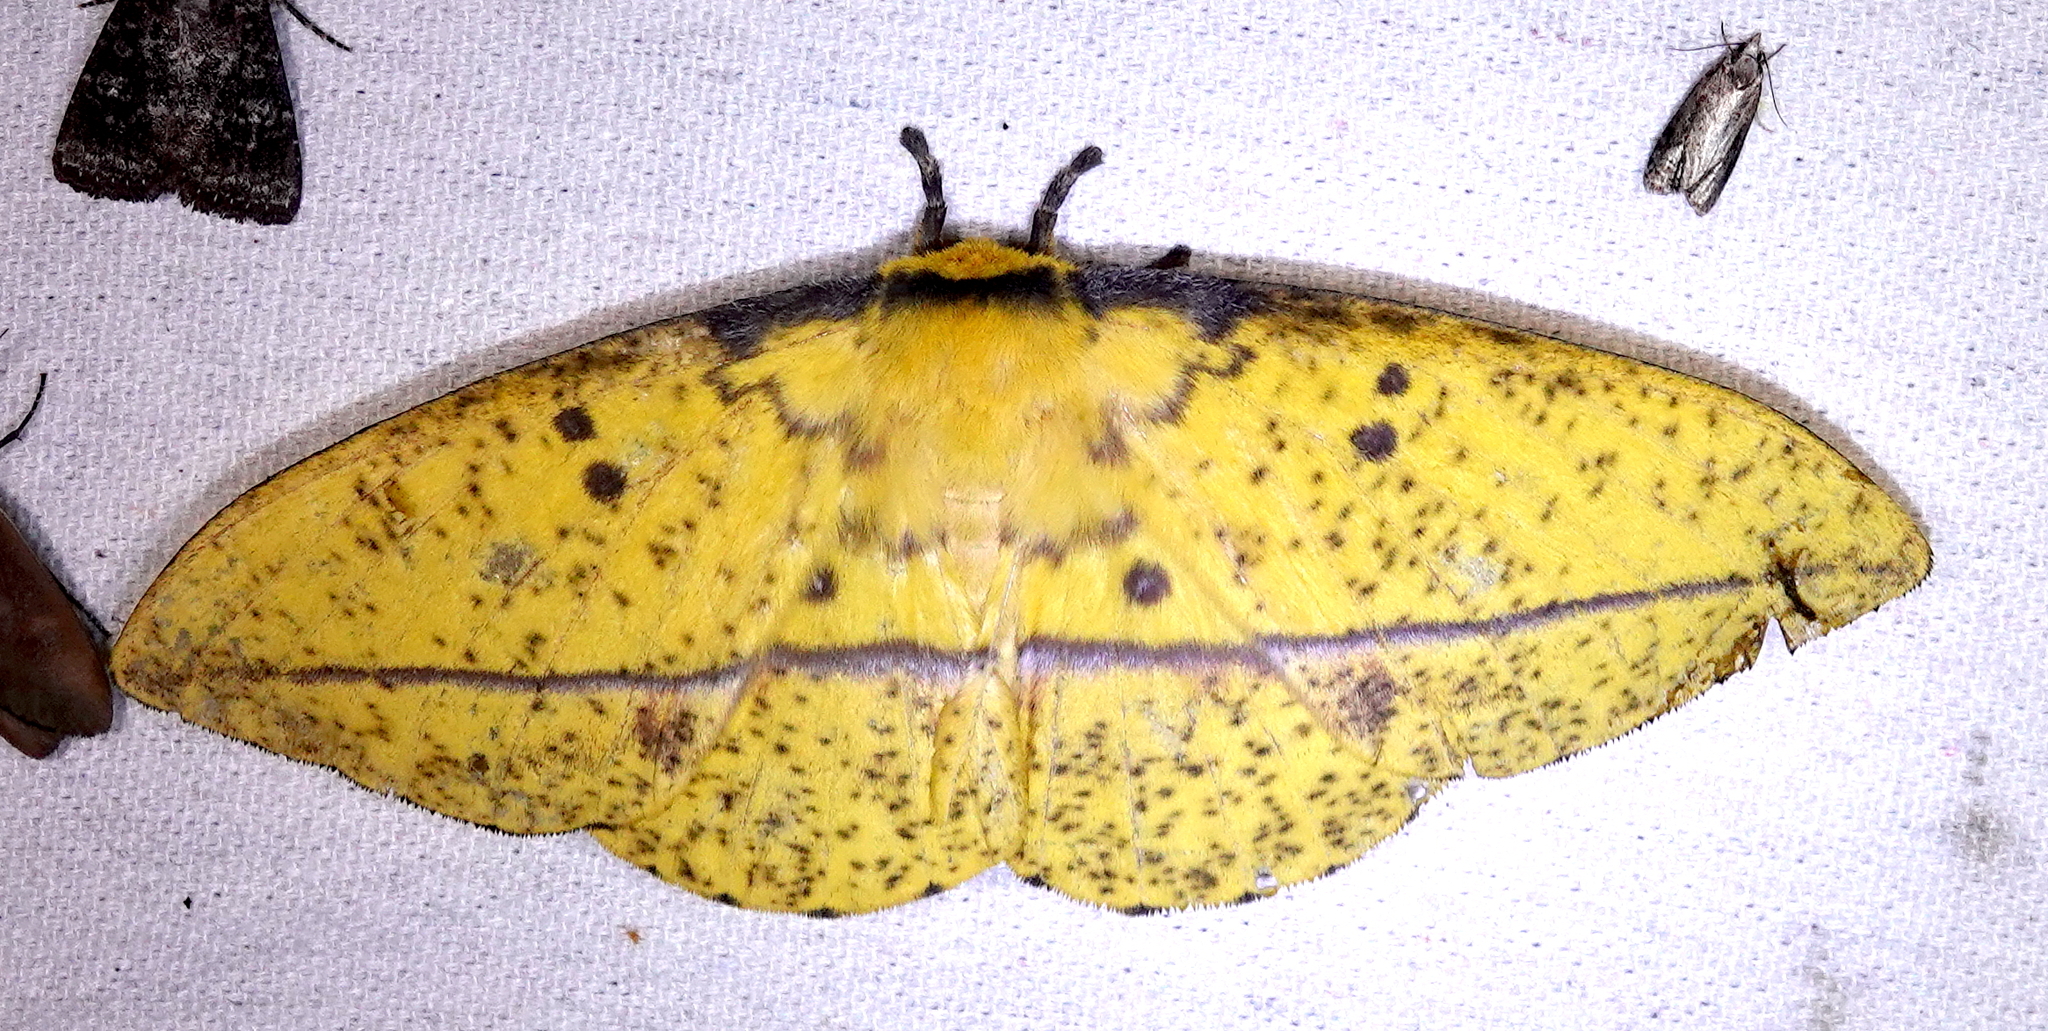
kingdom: Animalia
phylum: Arthropoda
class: Insecta
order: Lepidoptera
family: Saturniidae
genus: Bathyphlebia
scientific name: Bathyphlebia aglia
